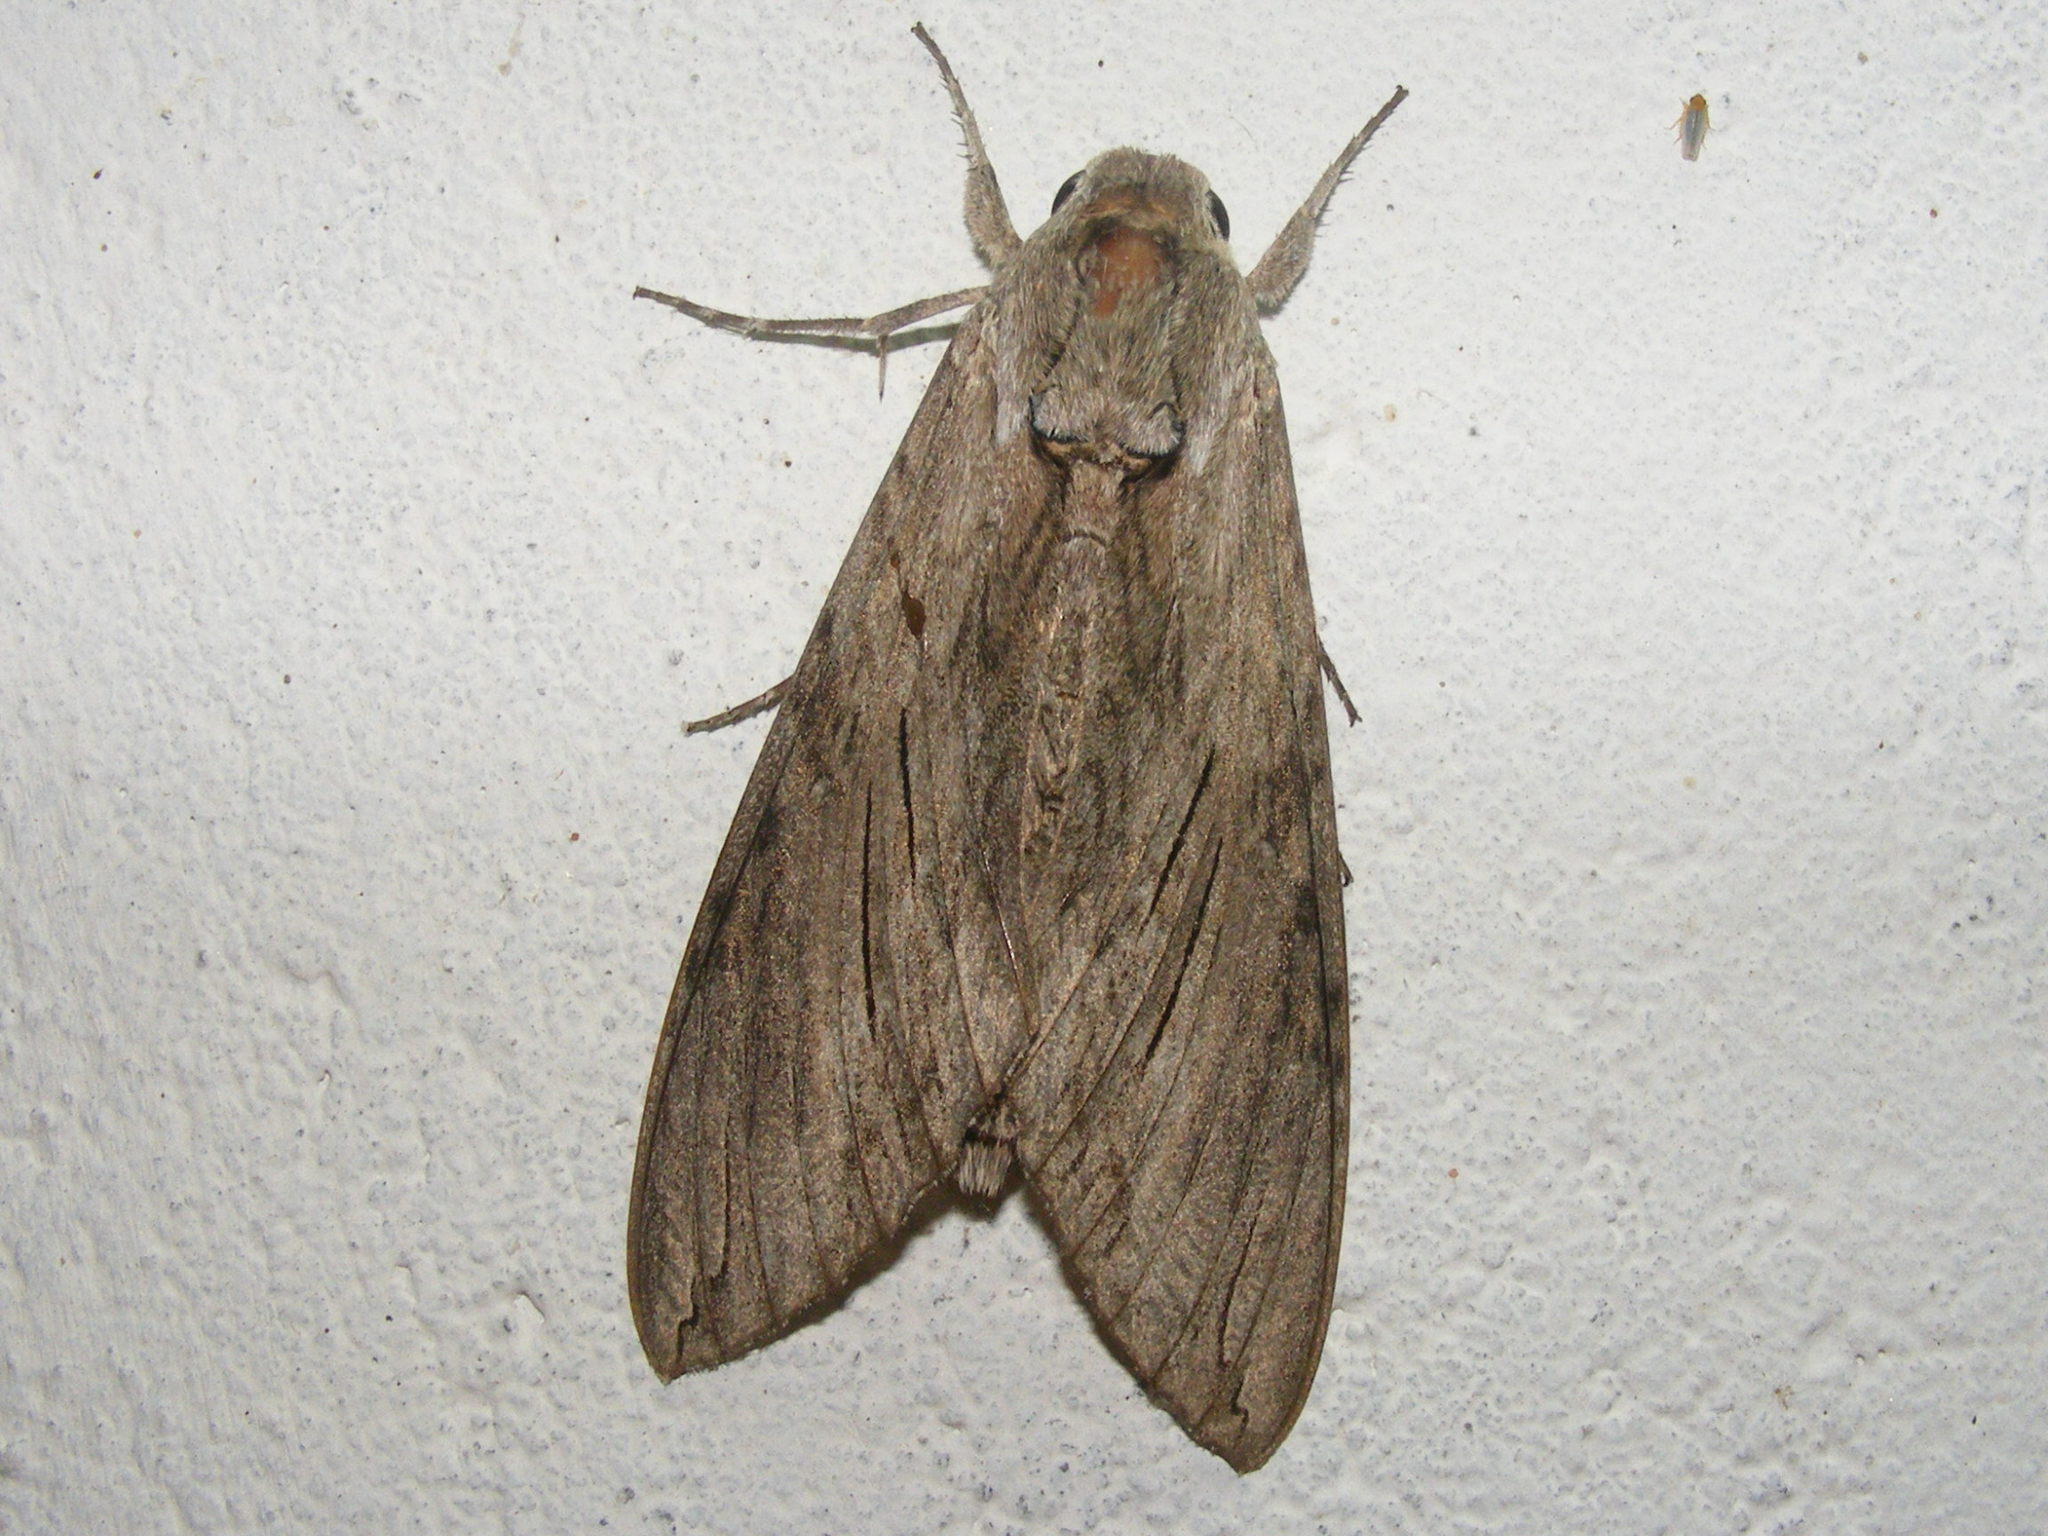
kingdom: Animalia
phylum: Arthropoda
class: Insecta
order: Lepidoptera
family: Sphingidae
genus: Agrius
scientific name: Agrius convolvuli
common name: Convolvulus hawkmoth
